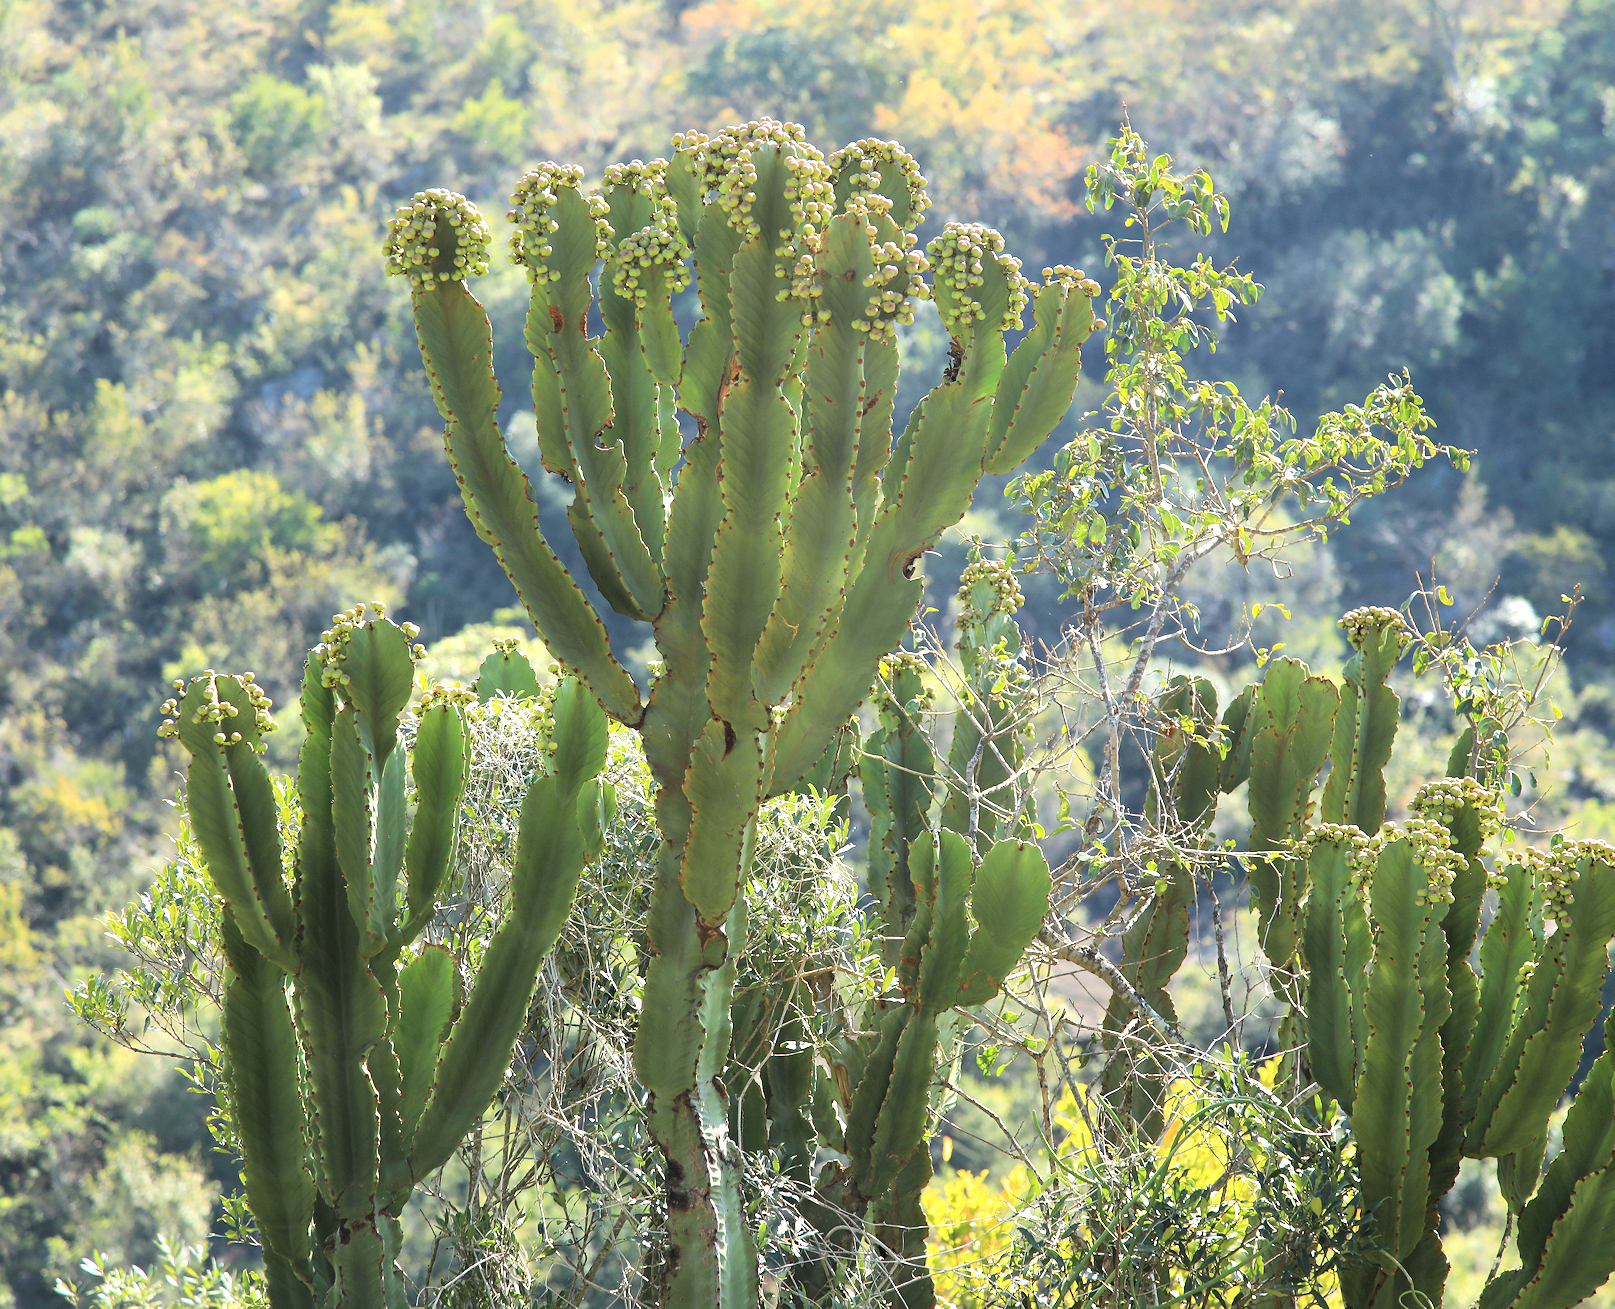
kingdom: Plantae
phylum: Tracheophyta
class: Magnoliopsida
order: Malpighiales
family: Euphorbiaceae
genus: Euphorbia
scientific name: Euphorbia ingens
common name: Cactus spurge
